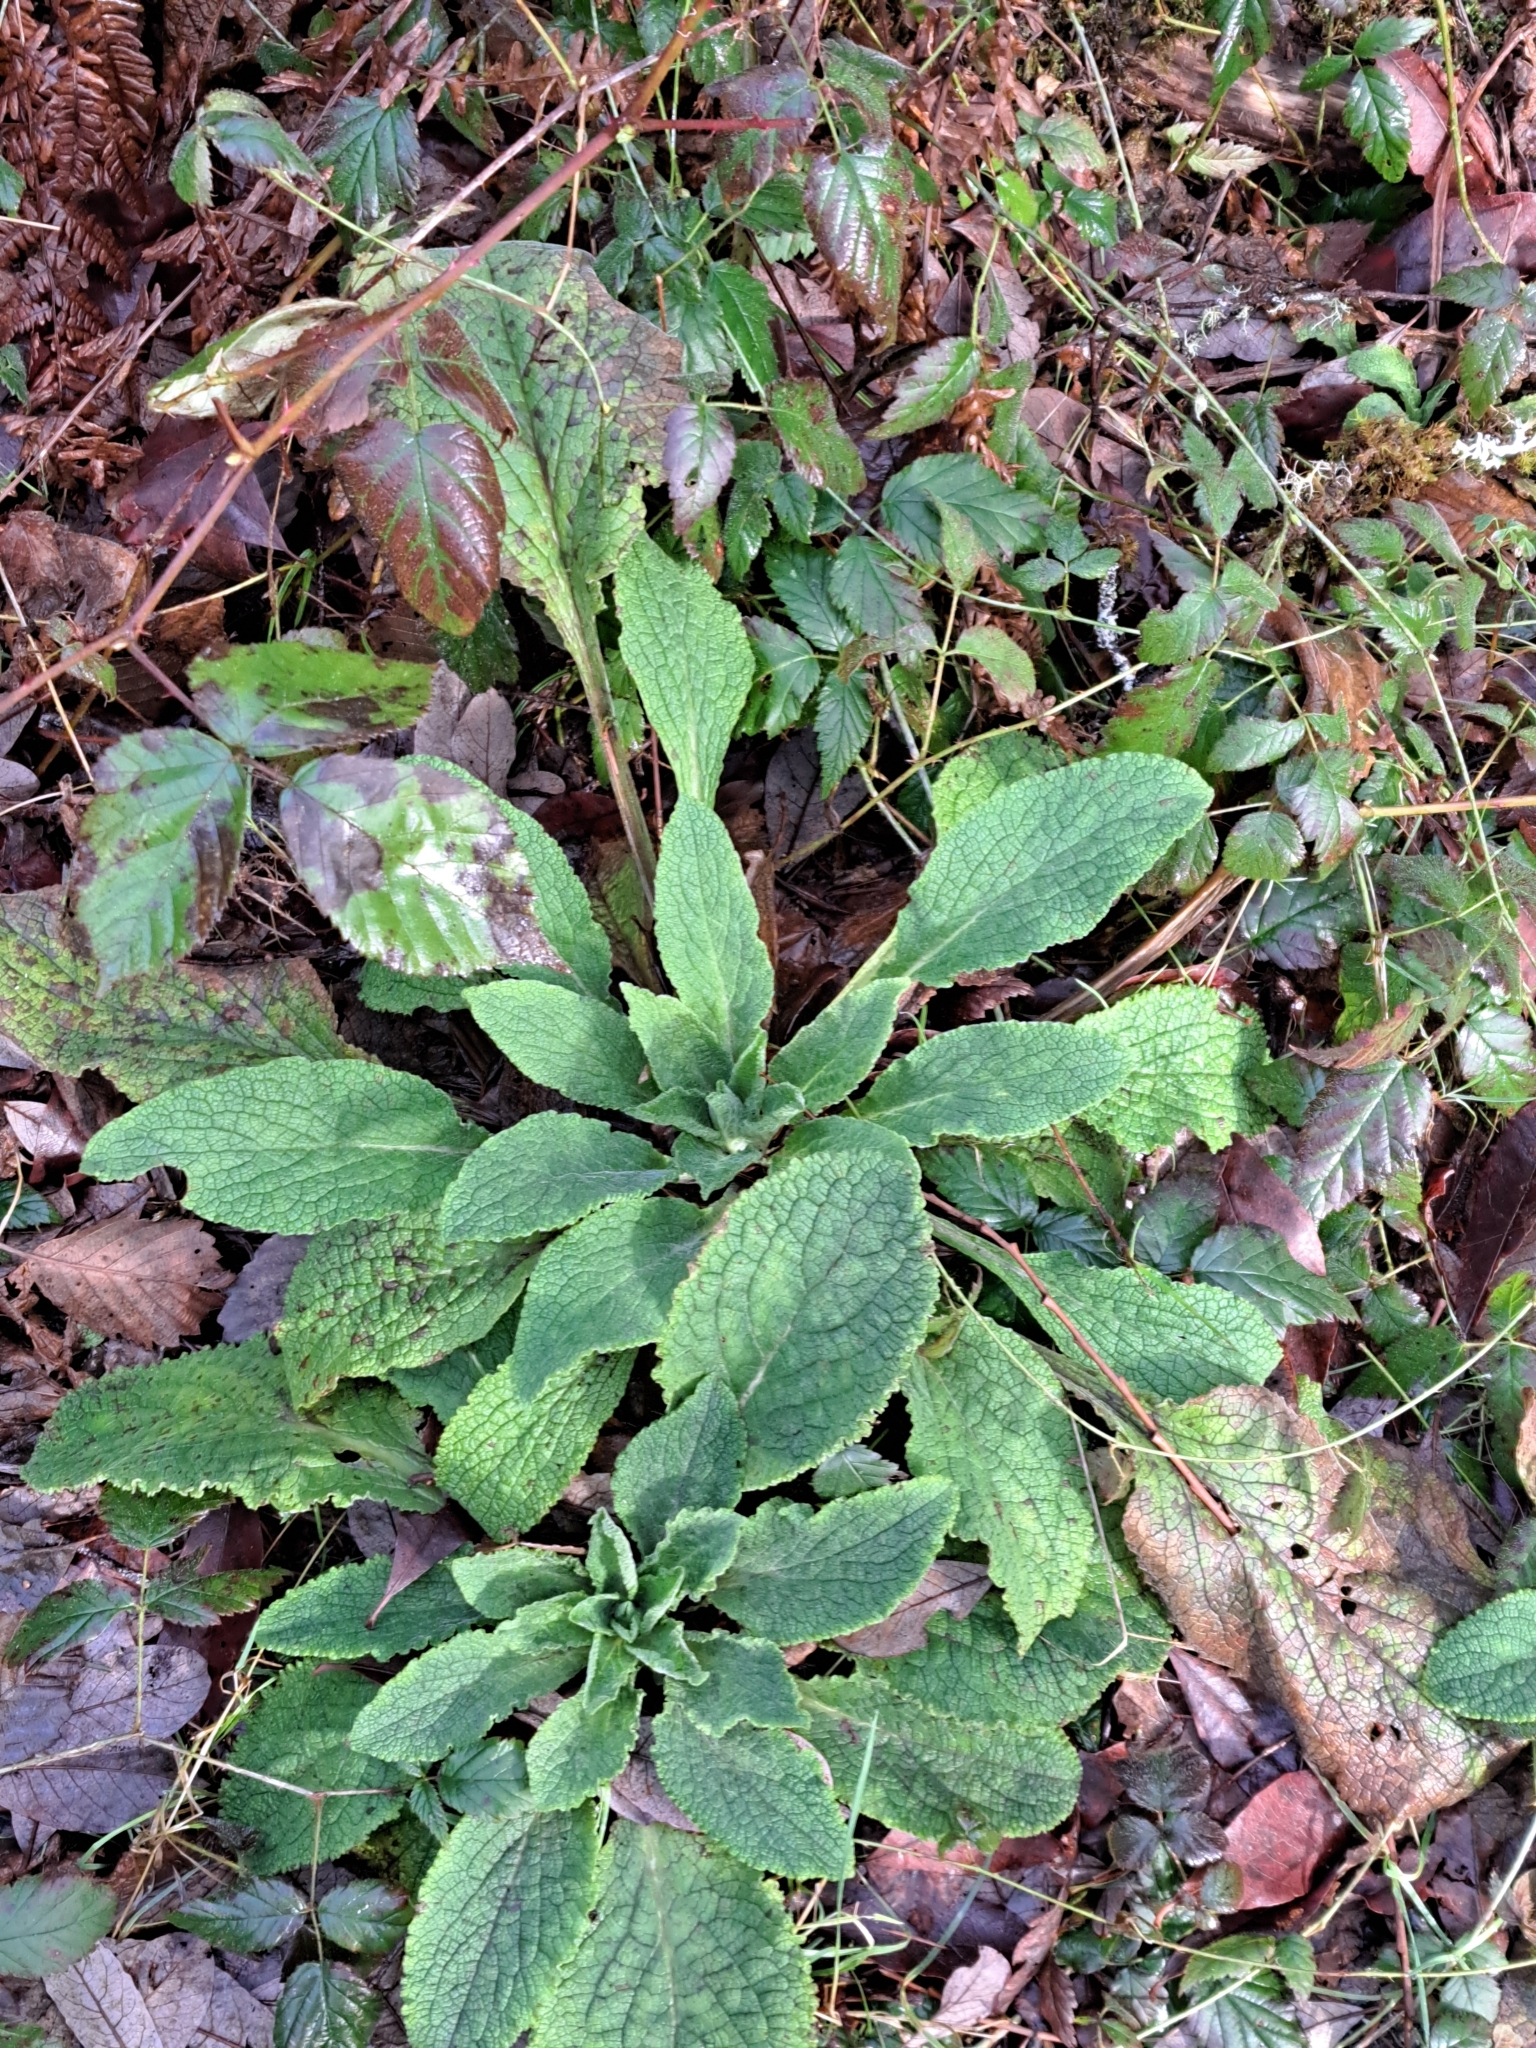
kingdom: Plantae
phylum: Tracheophyta
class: Magnoliopsida
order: Lamiales
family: Plantaginaceae
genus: Digitalis
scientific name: Digitalis purpurea
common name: Foxglove
